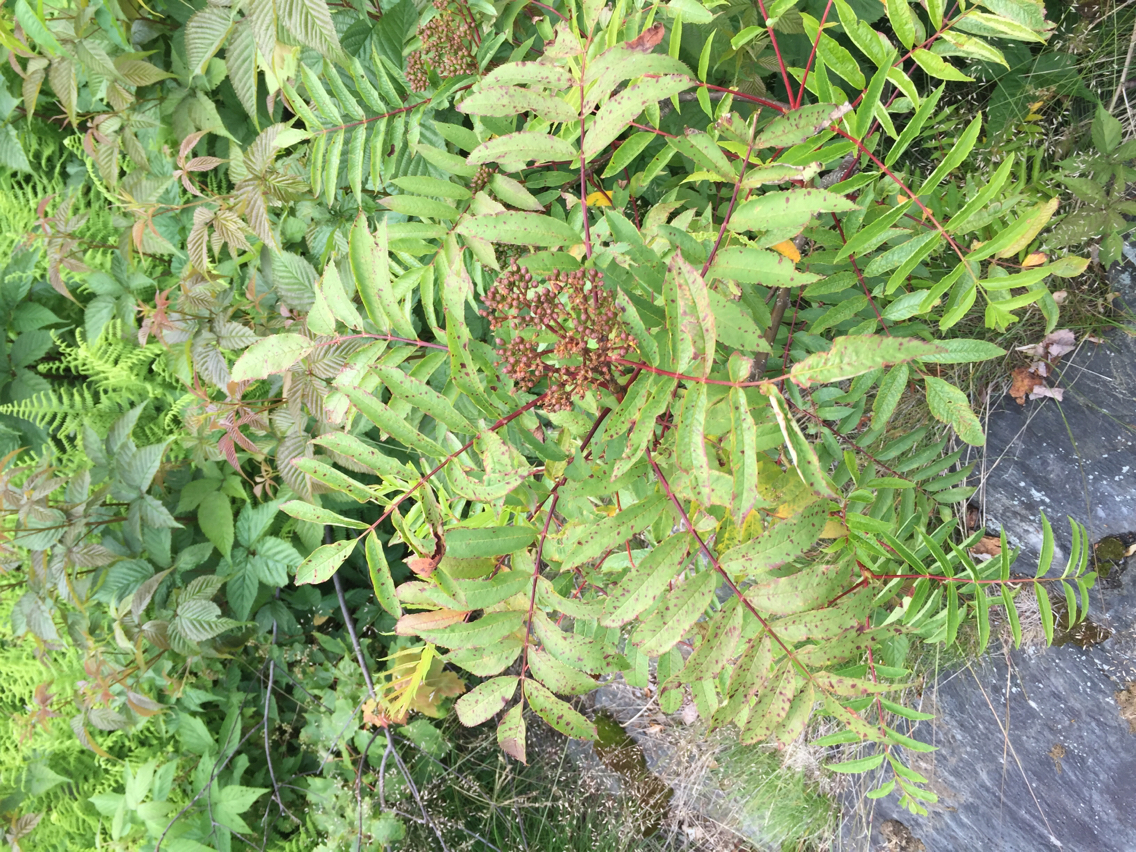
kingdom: Plantae
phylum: Tracheophyta
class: Magnoliopsida
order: Rosales
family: Rosaceae
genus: Sorbus
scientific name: Sorbus americana
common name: American mountain-ash
